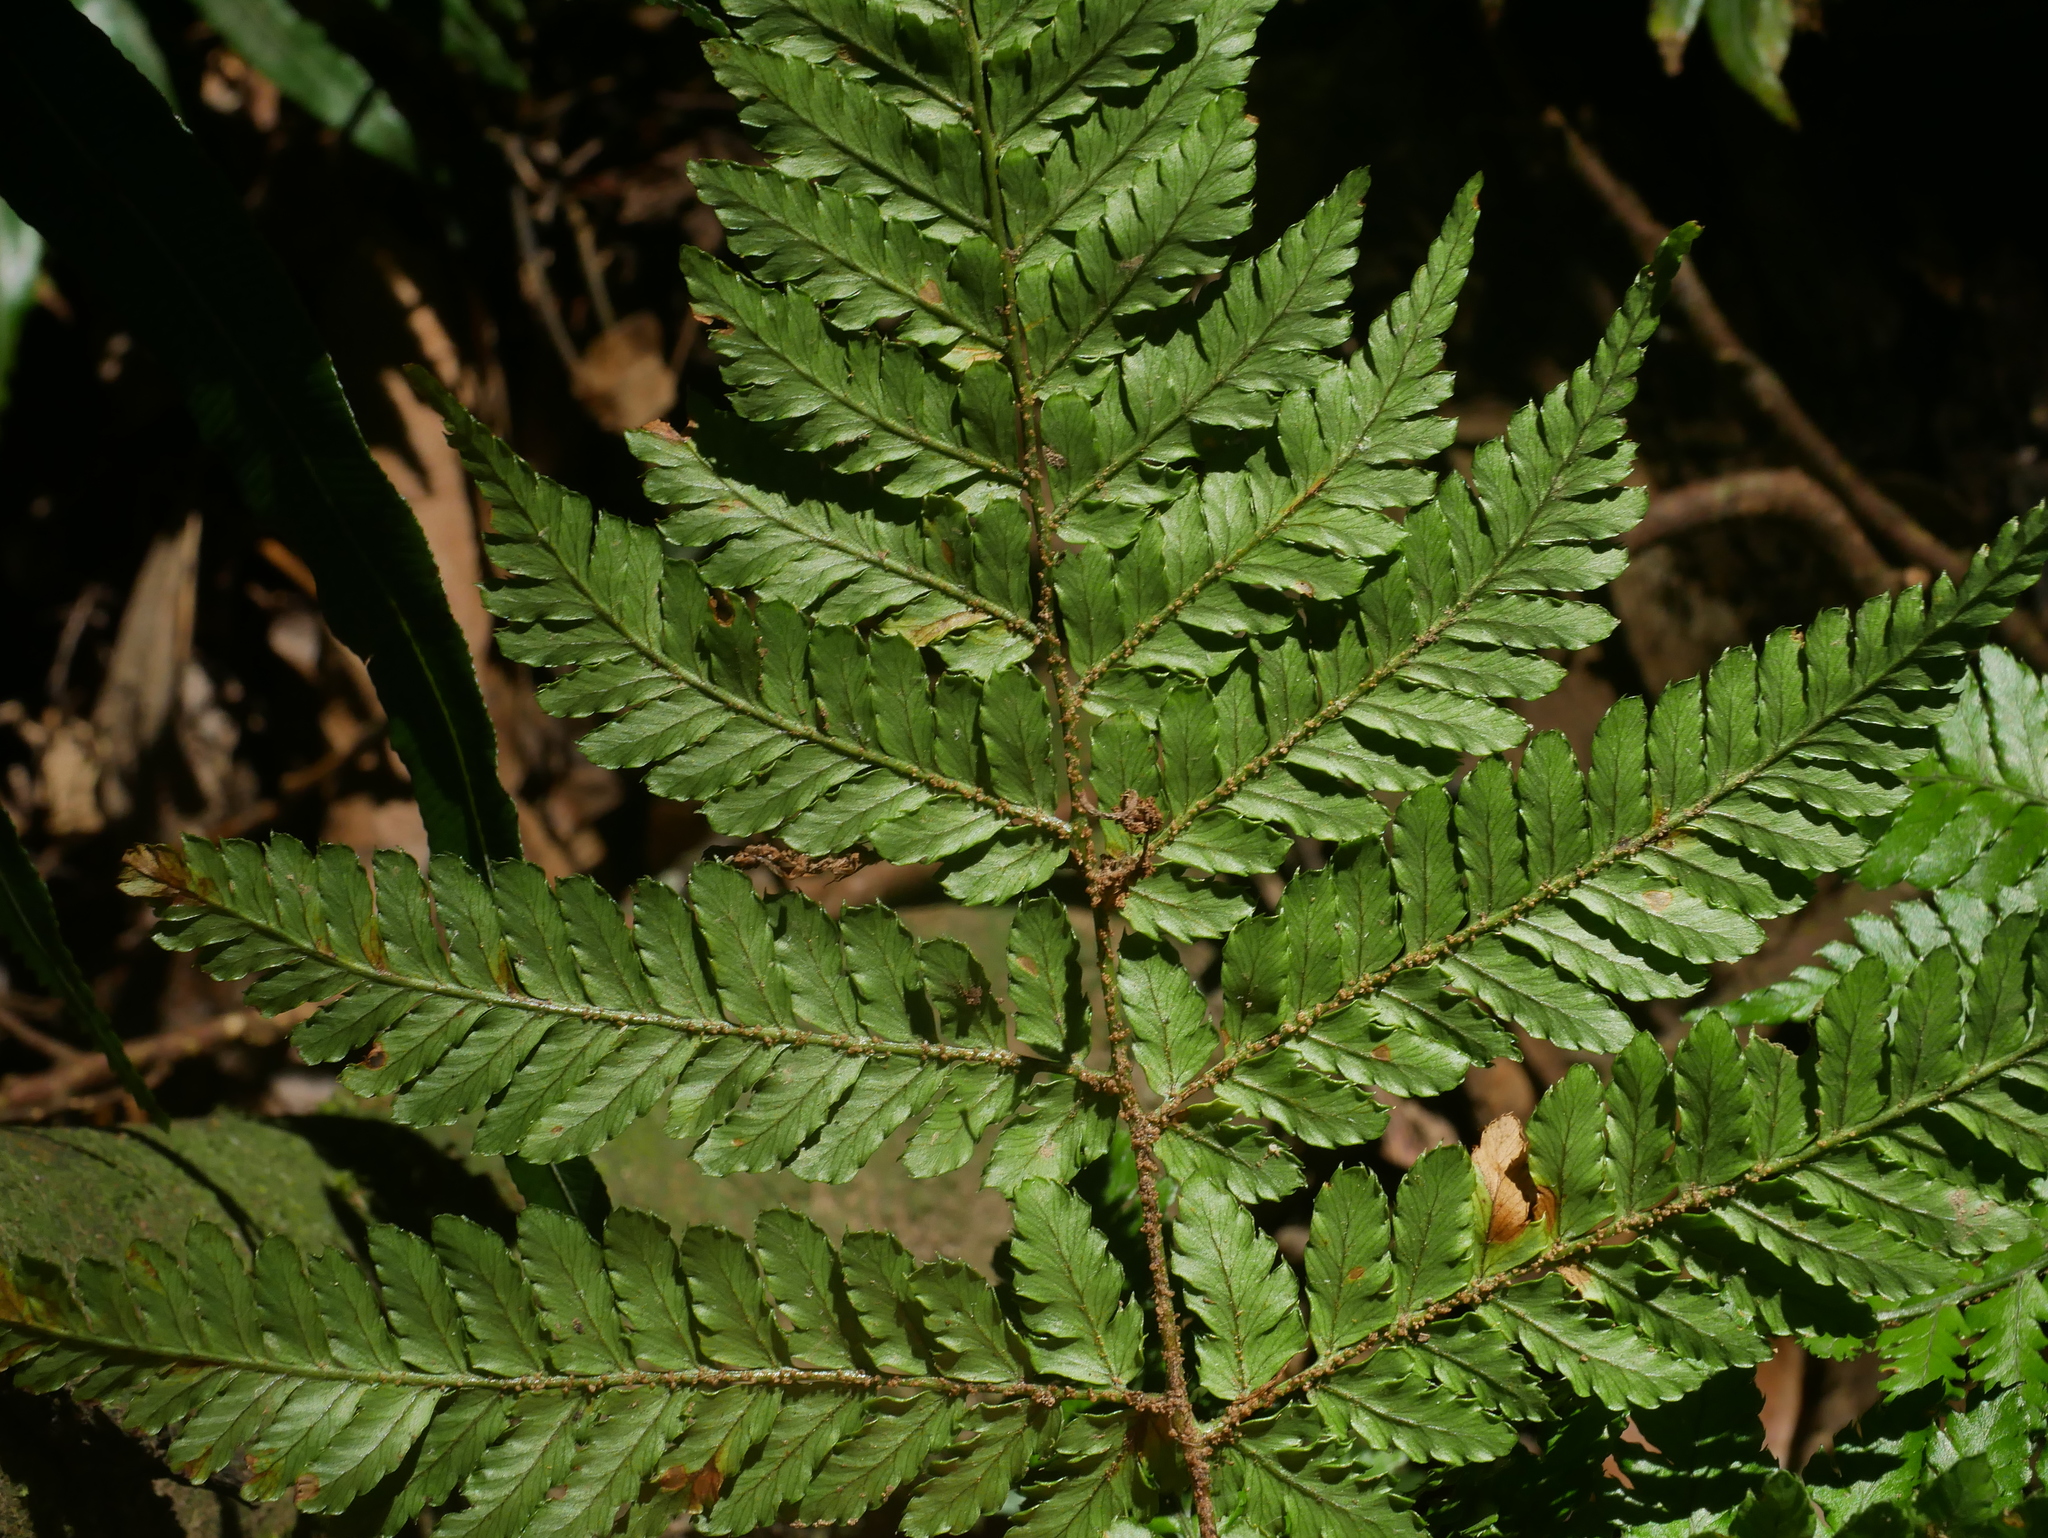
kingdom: Plantae
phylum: Tracheophyta
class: Polypodiopsida
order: Polypodiales
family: Dryopteridaceae
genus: Dryopteris
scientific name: Dryopteris formosana
